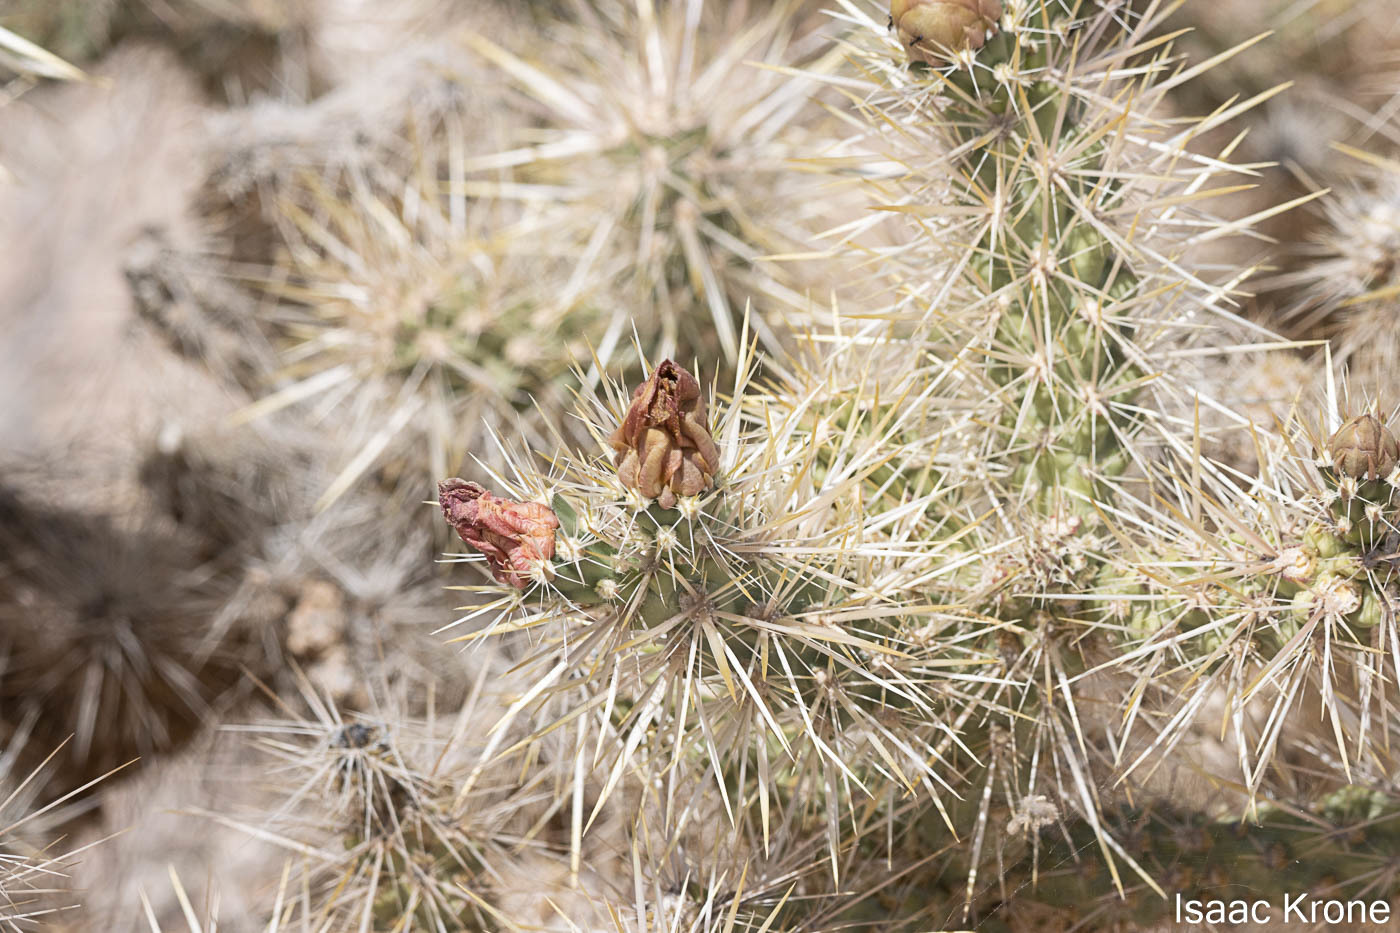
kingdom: Plantae
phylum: Tracheophyta
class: Magnoliopsida
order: Caryophyllales
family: Cactaceae
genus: Cylindropuntia
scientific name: Cylindropuntia echinocarpa
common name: Ground cholla
